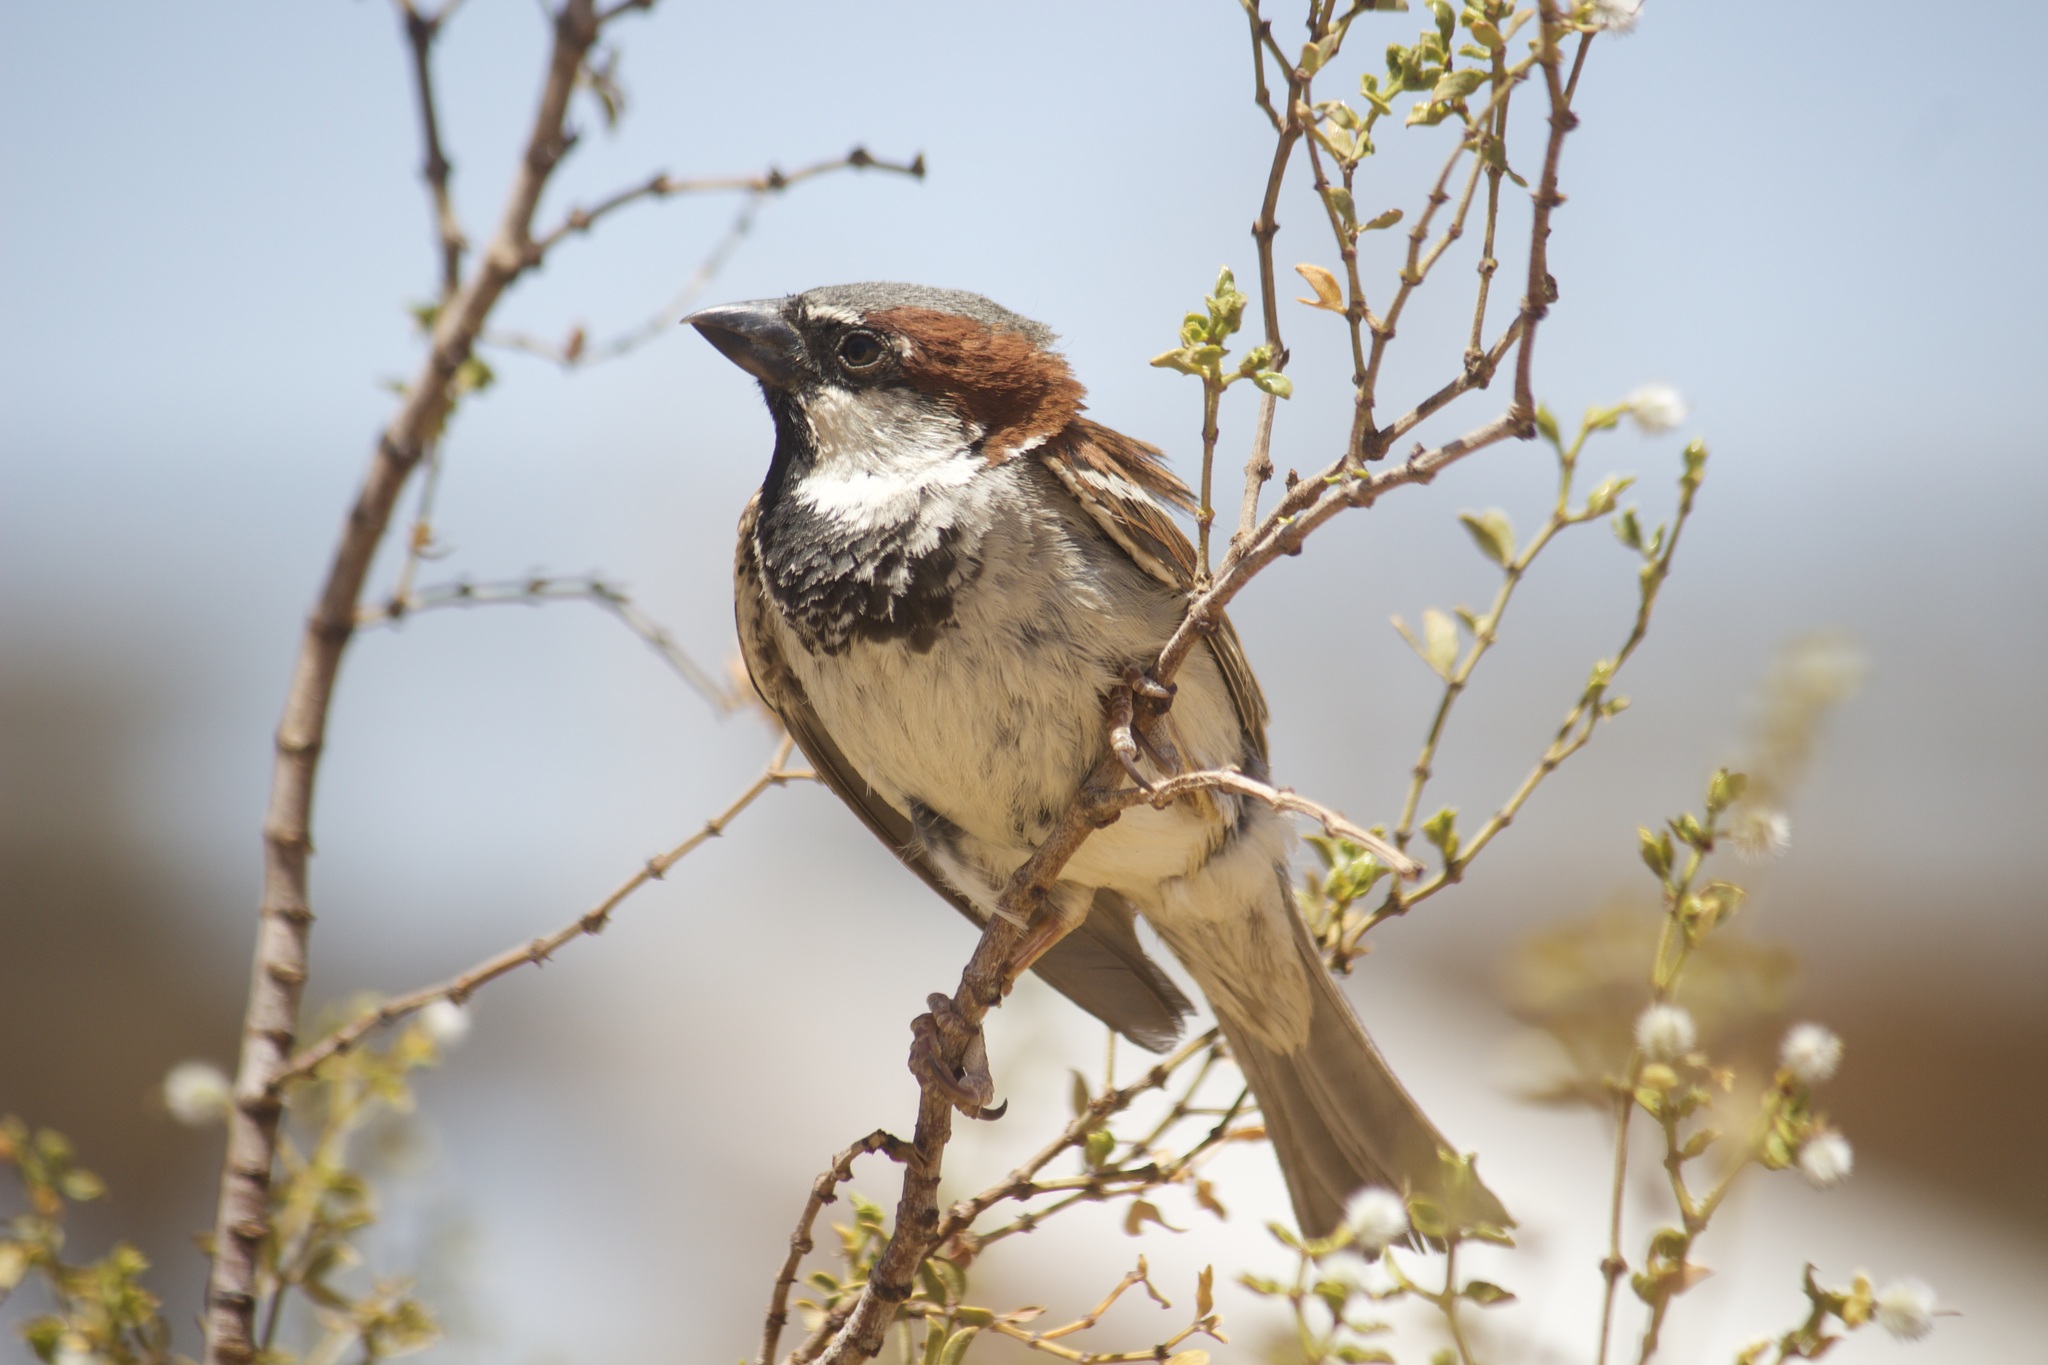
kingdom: Animalia
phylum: Chordata
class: Aves
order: Passeriformes
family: Passeridae
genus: Passer
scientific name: Passer domesticus
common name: House sparrow
